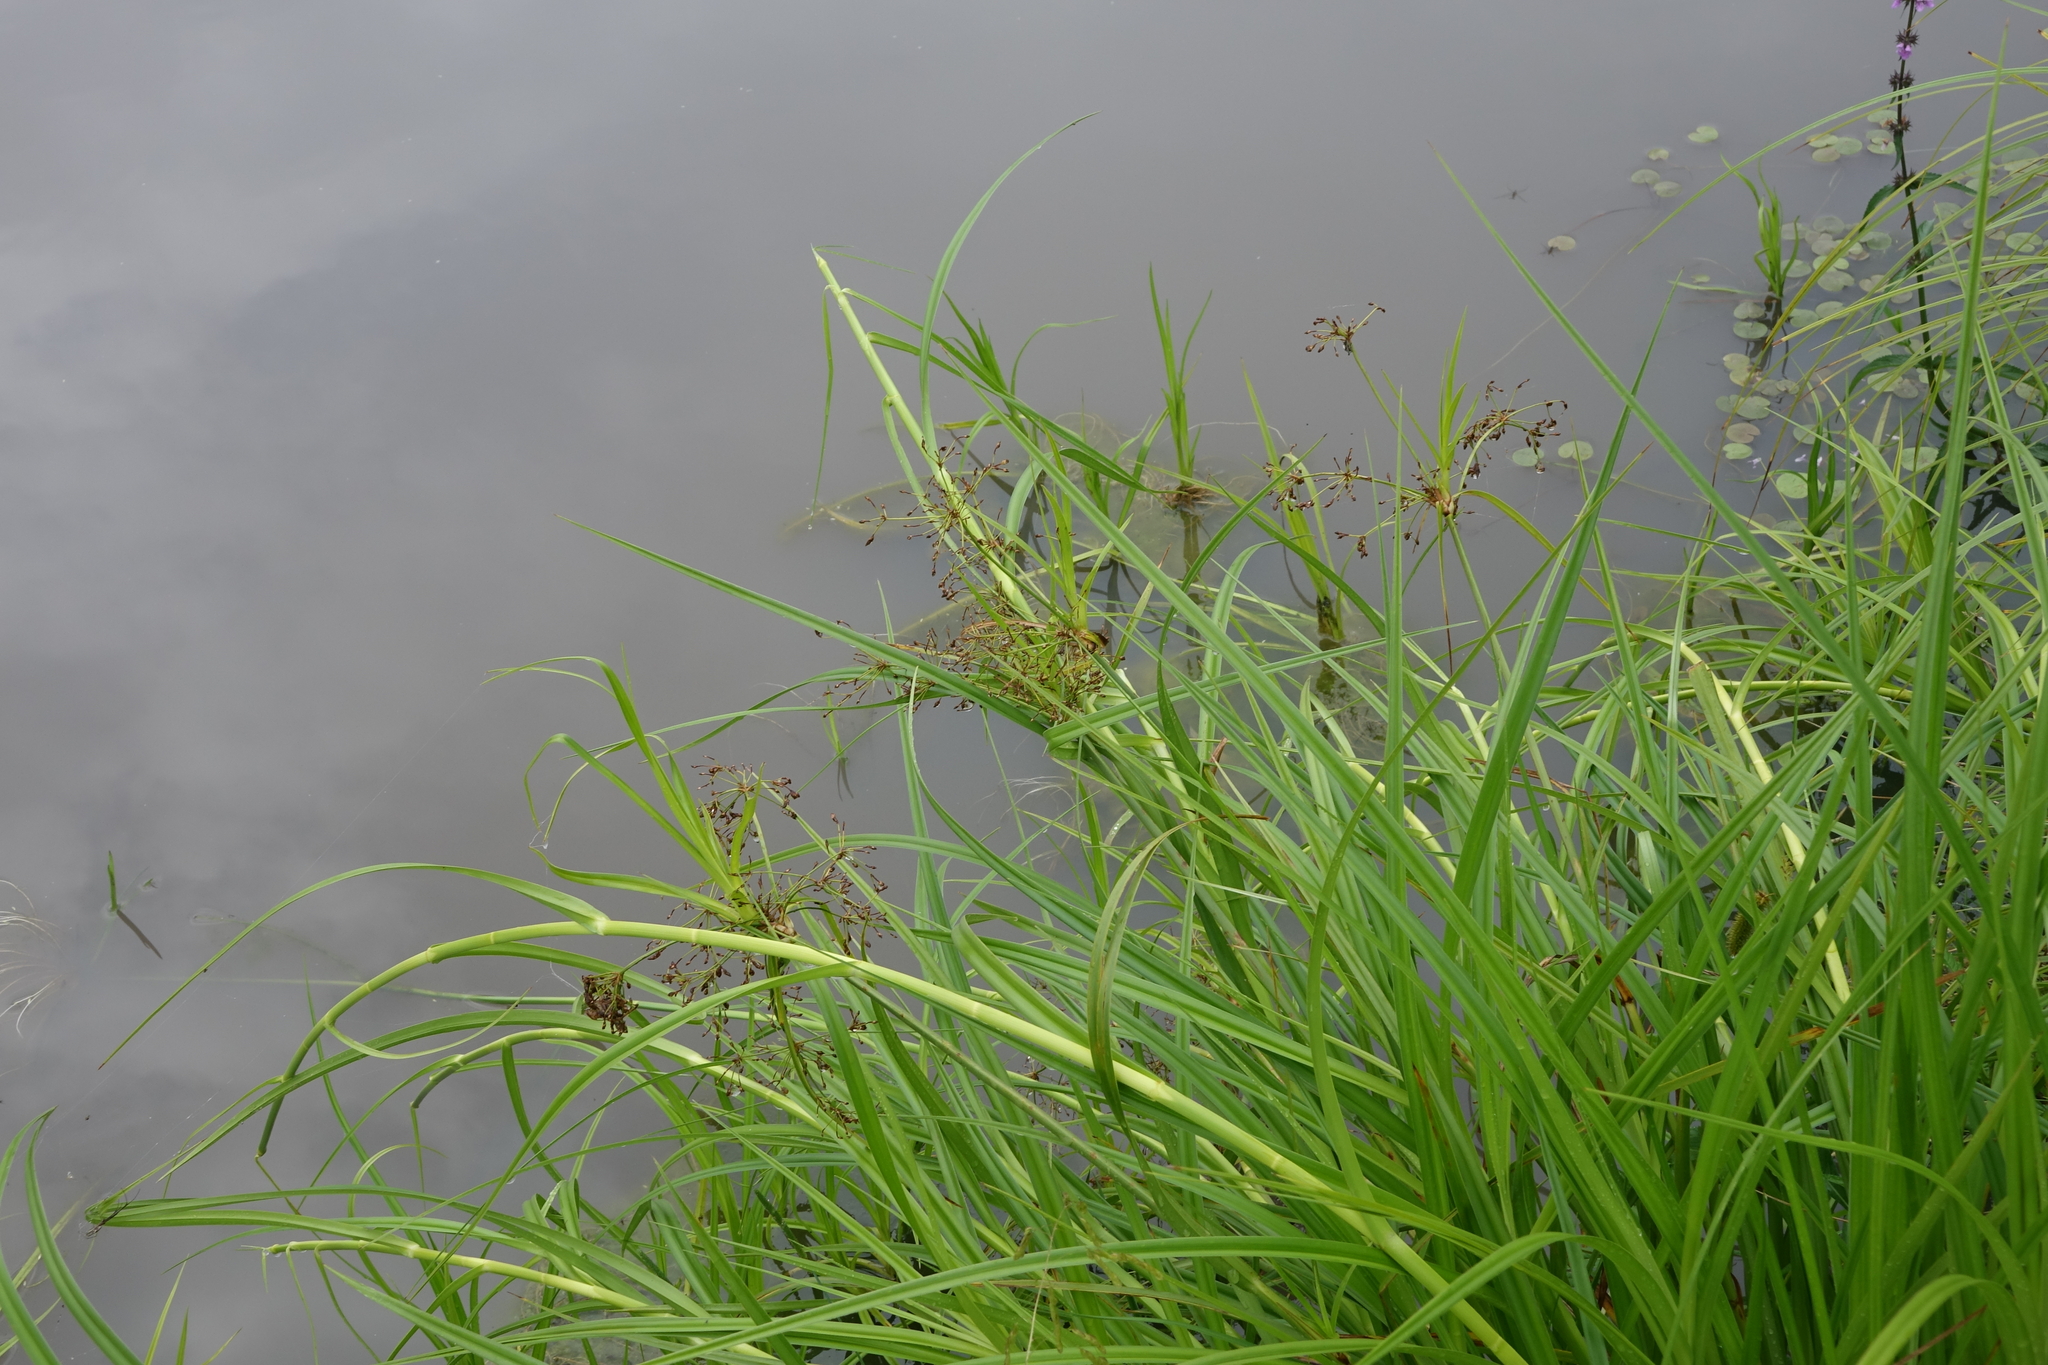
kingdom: Plantae
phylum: Tracheophyta
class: Liliopsida
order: Poales
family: Cyperaceae
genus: Scirpus
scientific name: Scirpus radicans
